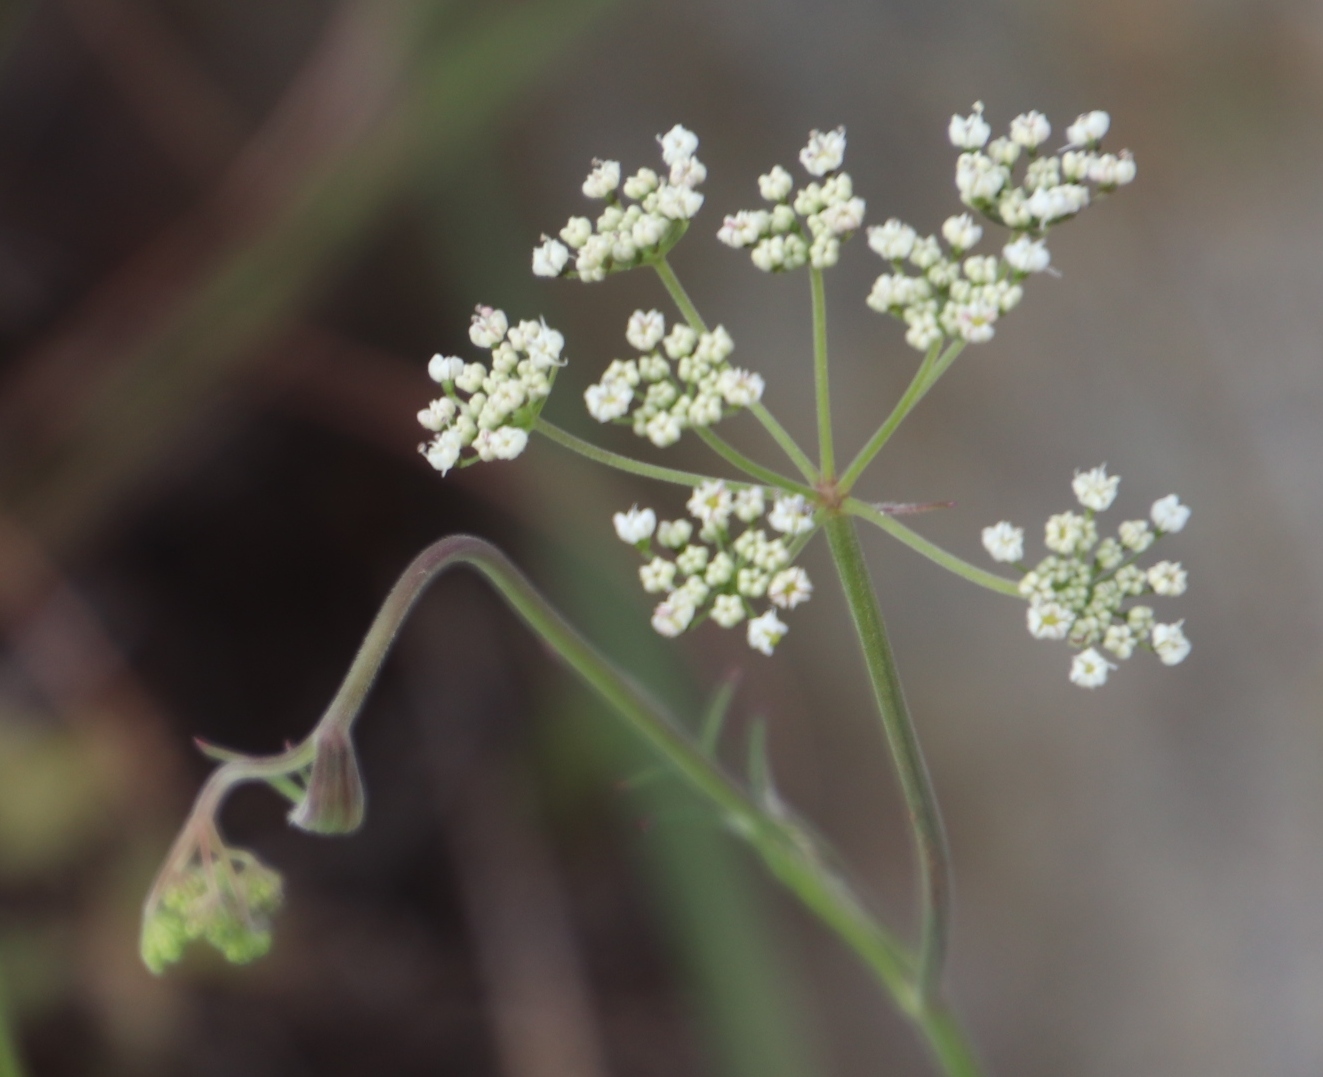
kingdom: Plantae
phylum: Tracheophyta
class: Magnoliopsida
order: Apiales
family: Apiaceae
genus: Pimpinella
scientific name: Pimpinella caffra
